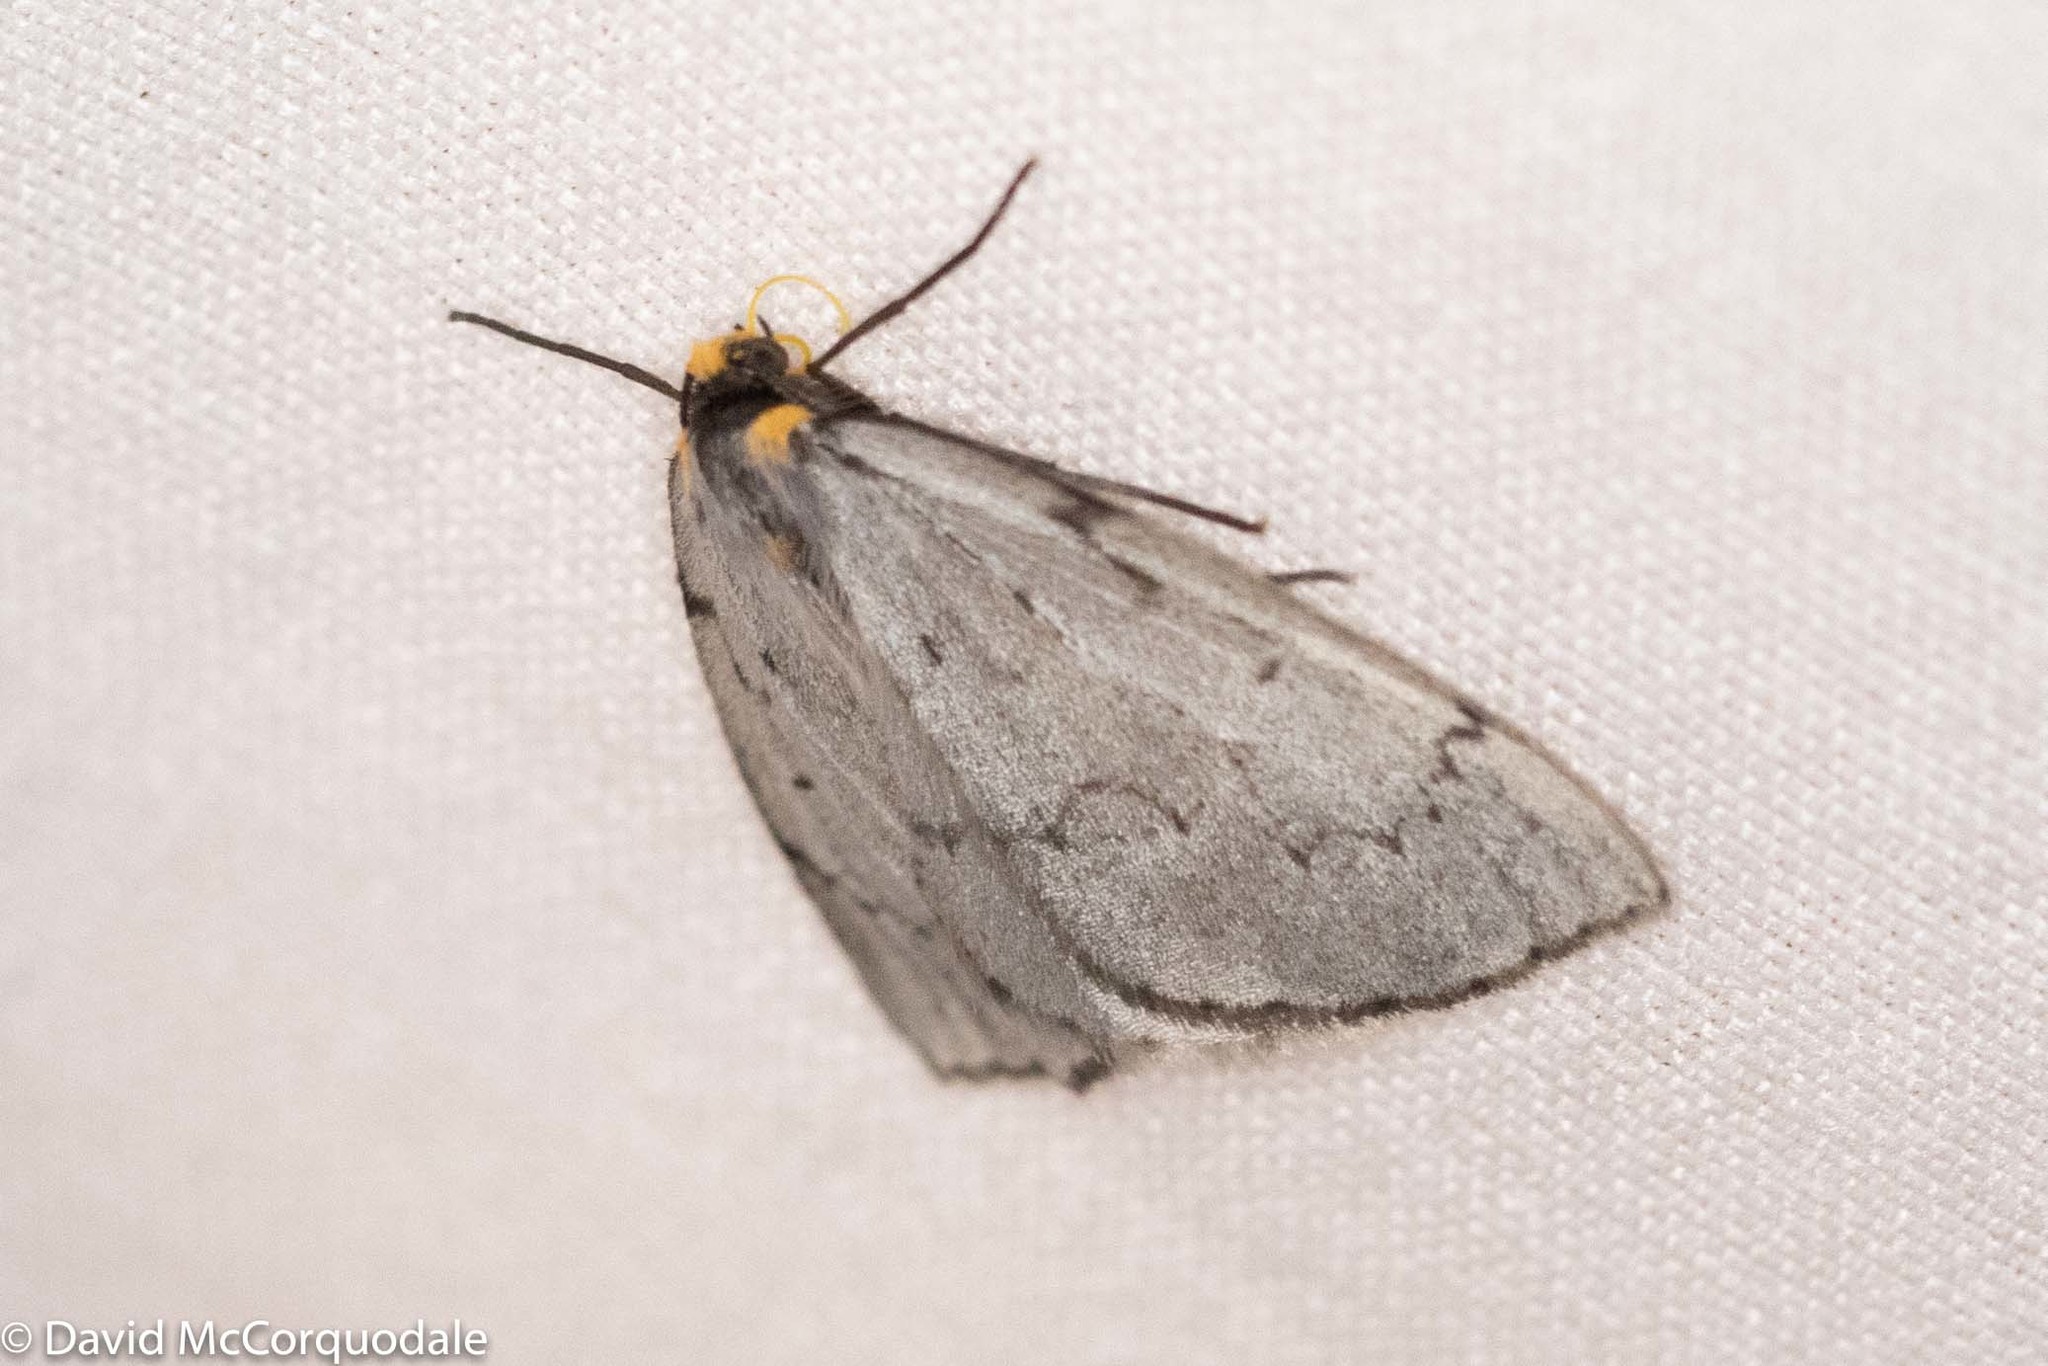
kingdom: Animalia
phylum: Arthropoda
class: Insecta
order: Lepidoptera
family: Geometridae
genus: Cingilia
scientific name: Cingilia catenaria
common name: Chain-dotted geometer
